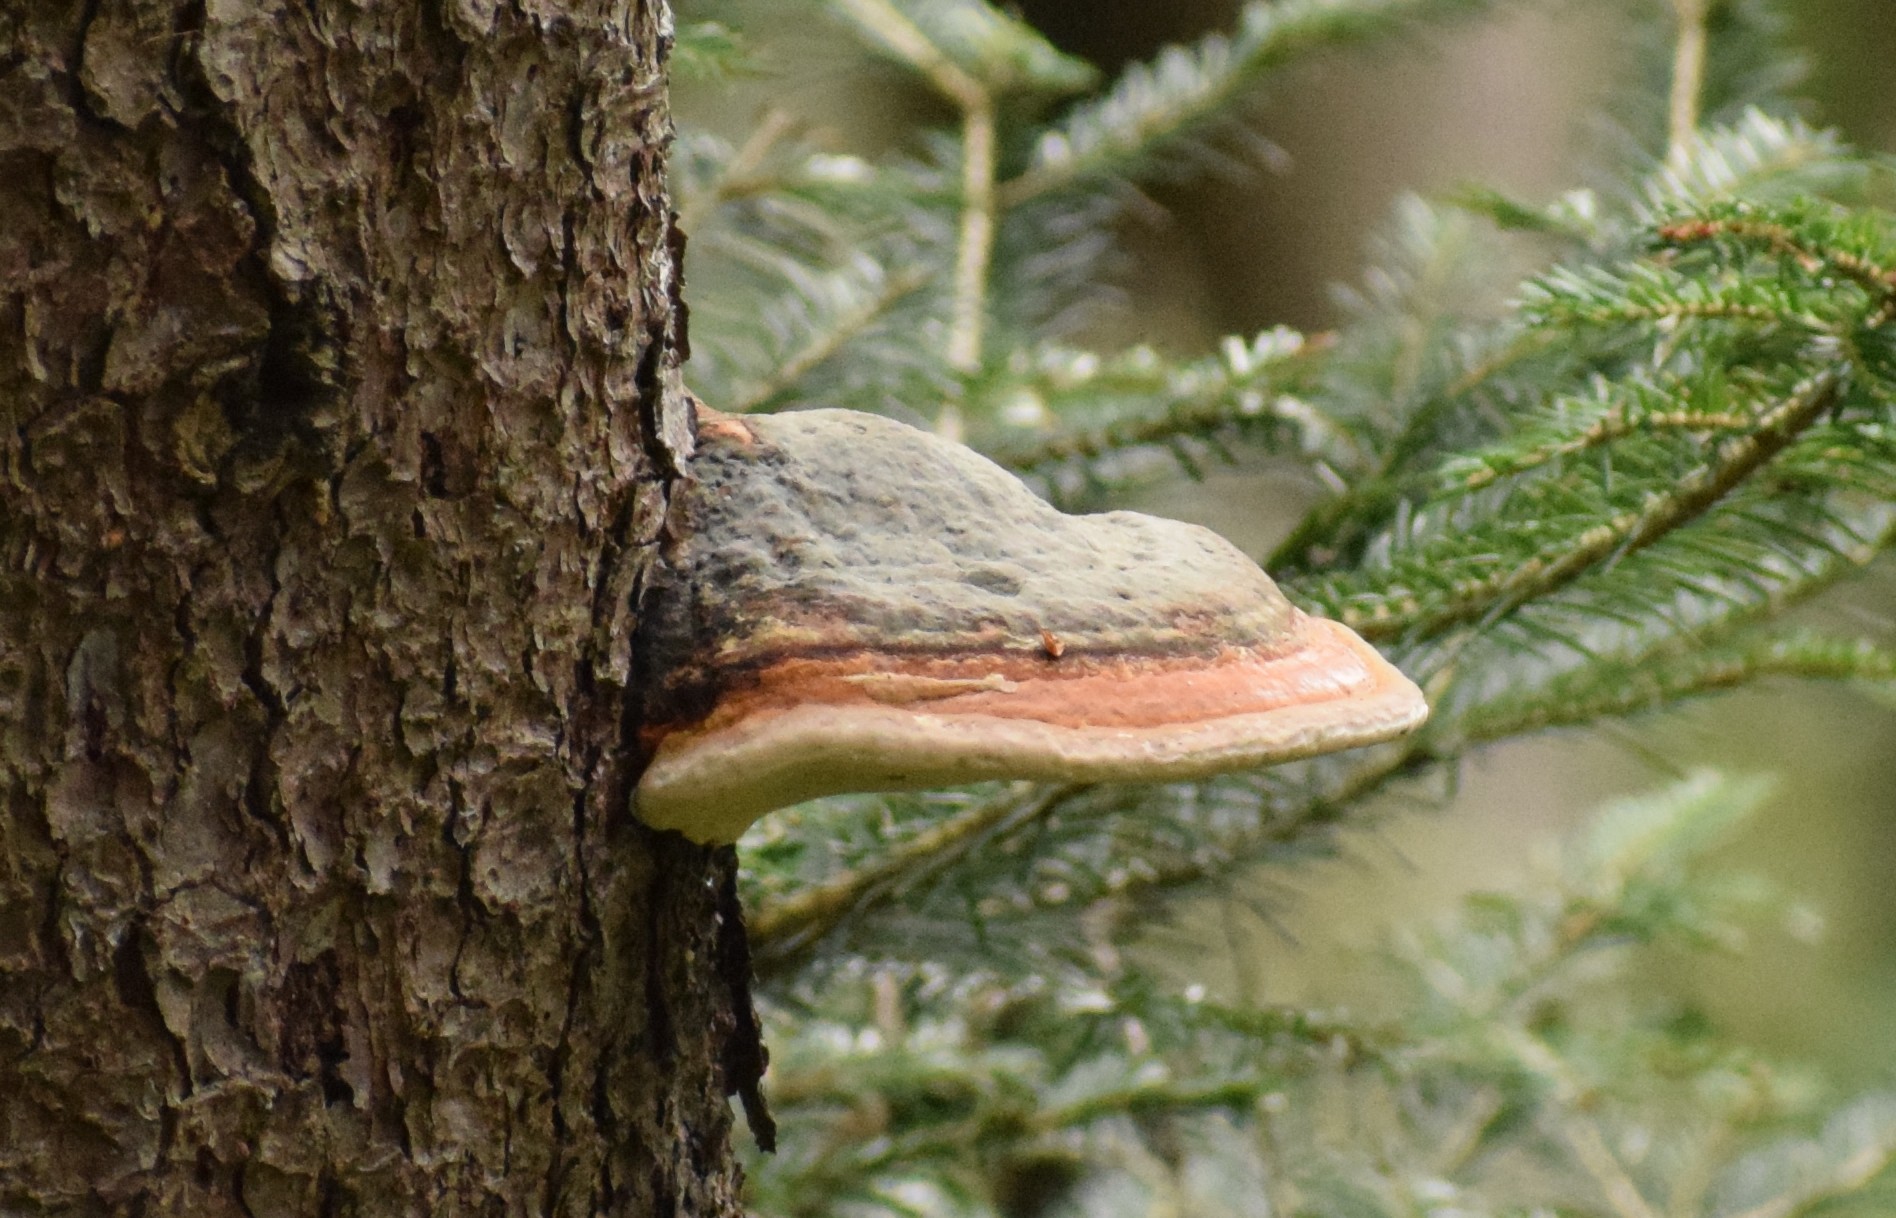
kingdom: Fungi
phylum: Basidiomycota
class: Agaricomycetes
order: Polyporales
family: Fomitopsidaceae
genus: Fomitopsis
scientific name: Fomitopsis pinicola
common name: Red-belted bracket
